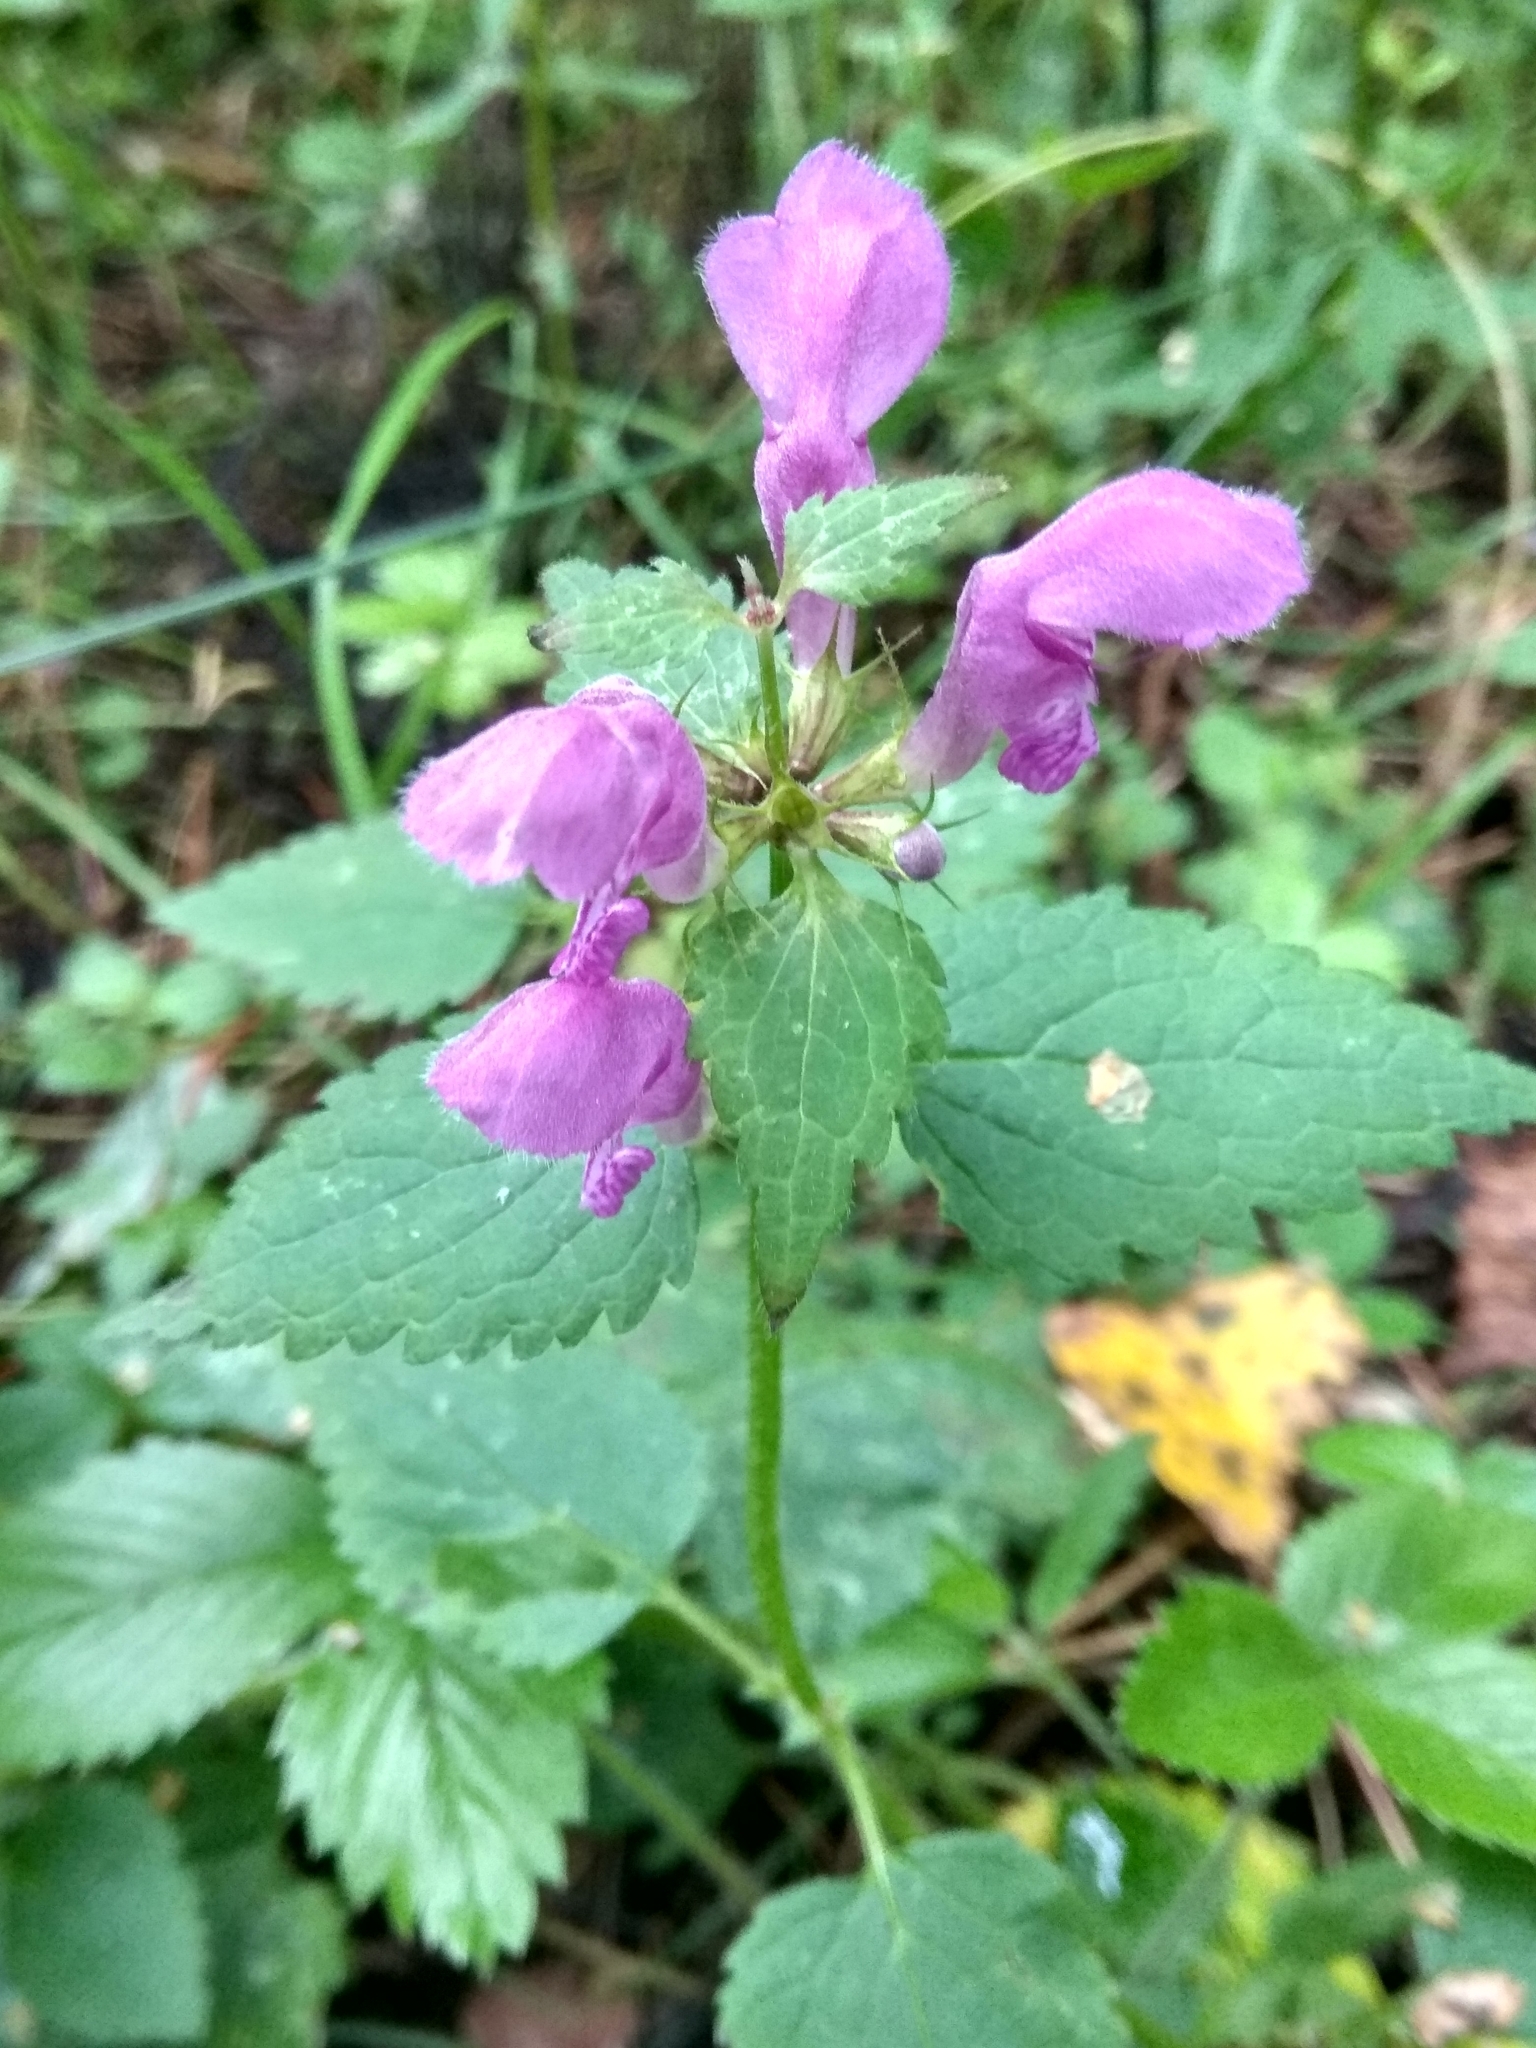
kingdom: Plantae
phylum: Tracheophyta
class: Magnoliopsida
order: Lamiales
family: Lamiaceae
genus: Lamium
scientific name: Lamium maculatum
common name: Spotted dead-nettle
